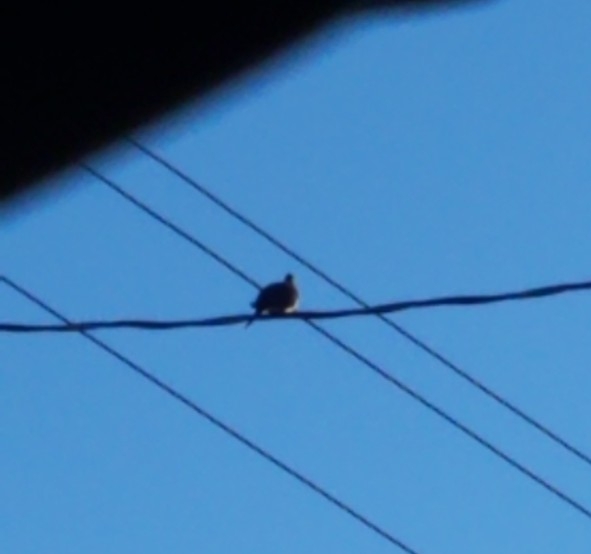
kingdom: Animalia
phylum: Chordata
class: Aves
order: Columbiformes
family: Columbidae
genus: Zenaida
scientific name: Zenaida macroura
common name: Mourning dove
